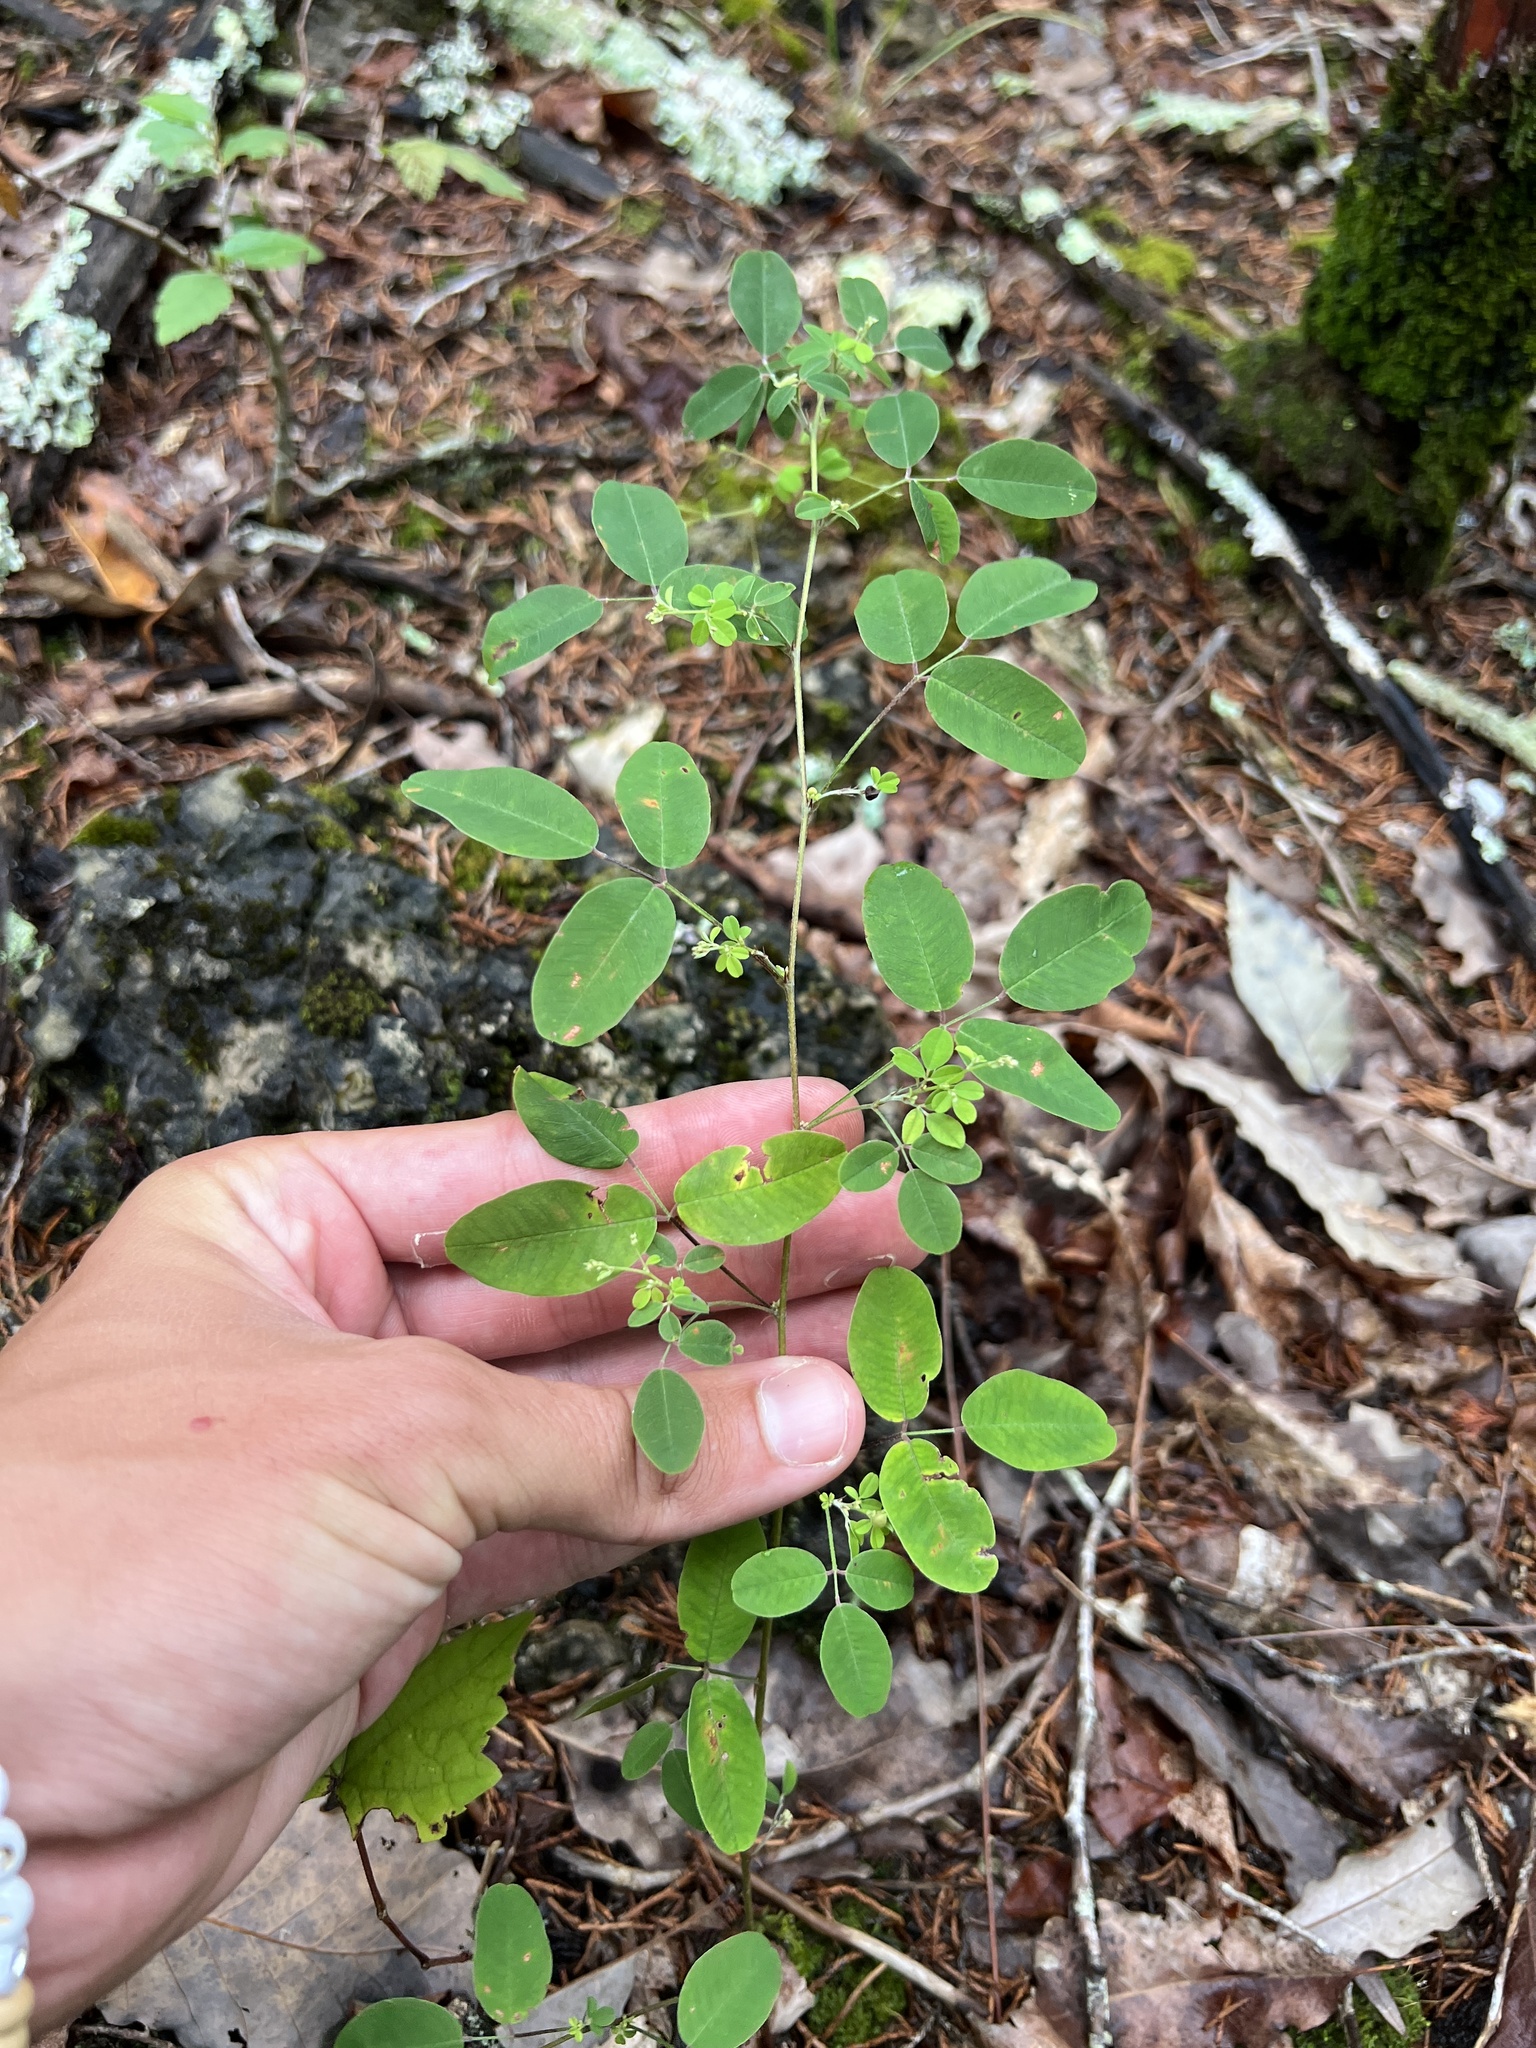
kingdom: Plantae
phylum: Tracheophyta
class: Magnoliopsida
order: Fabales
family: Fabaceae
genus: Lespedeza
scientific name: Lespedeza
